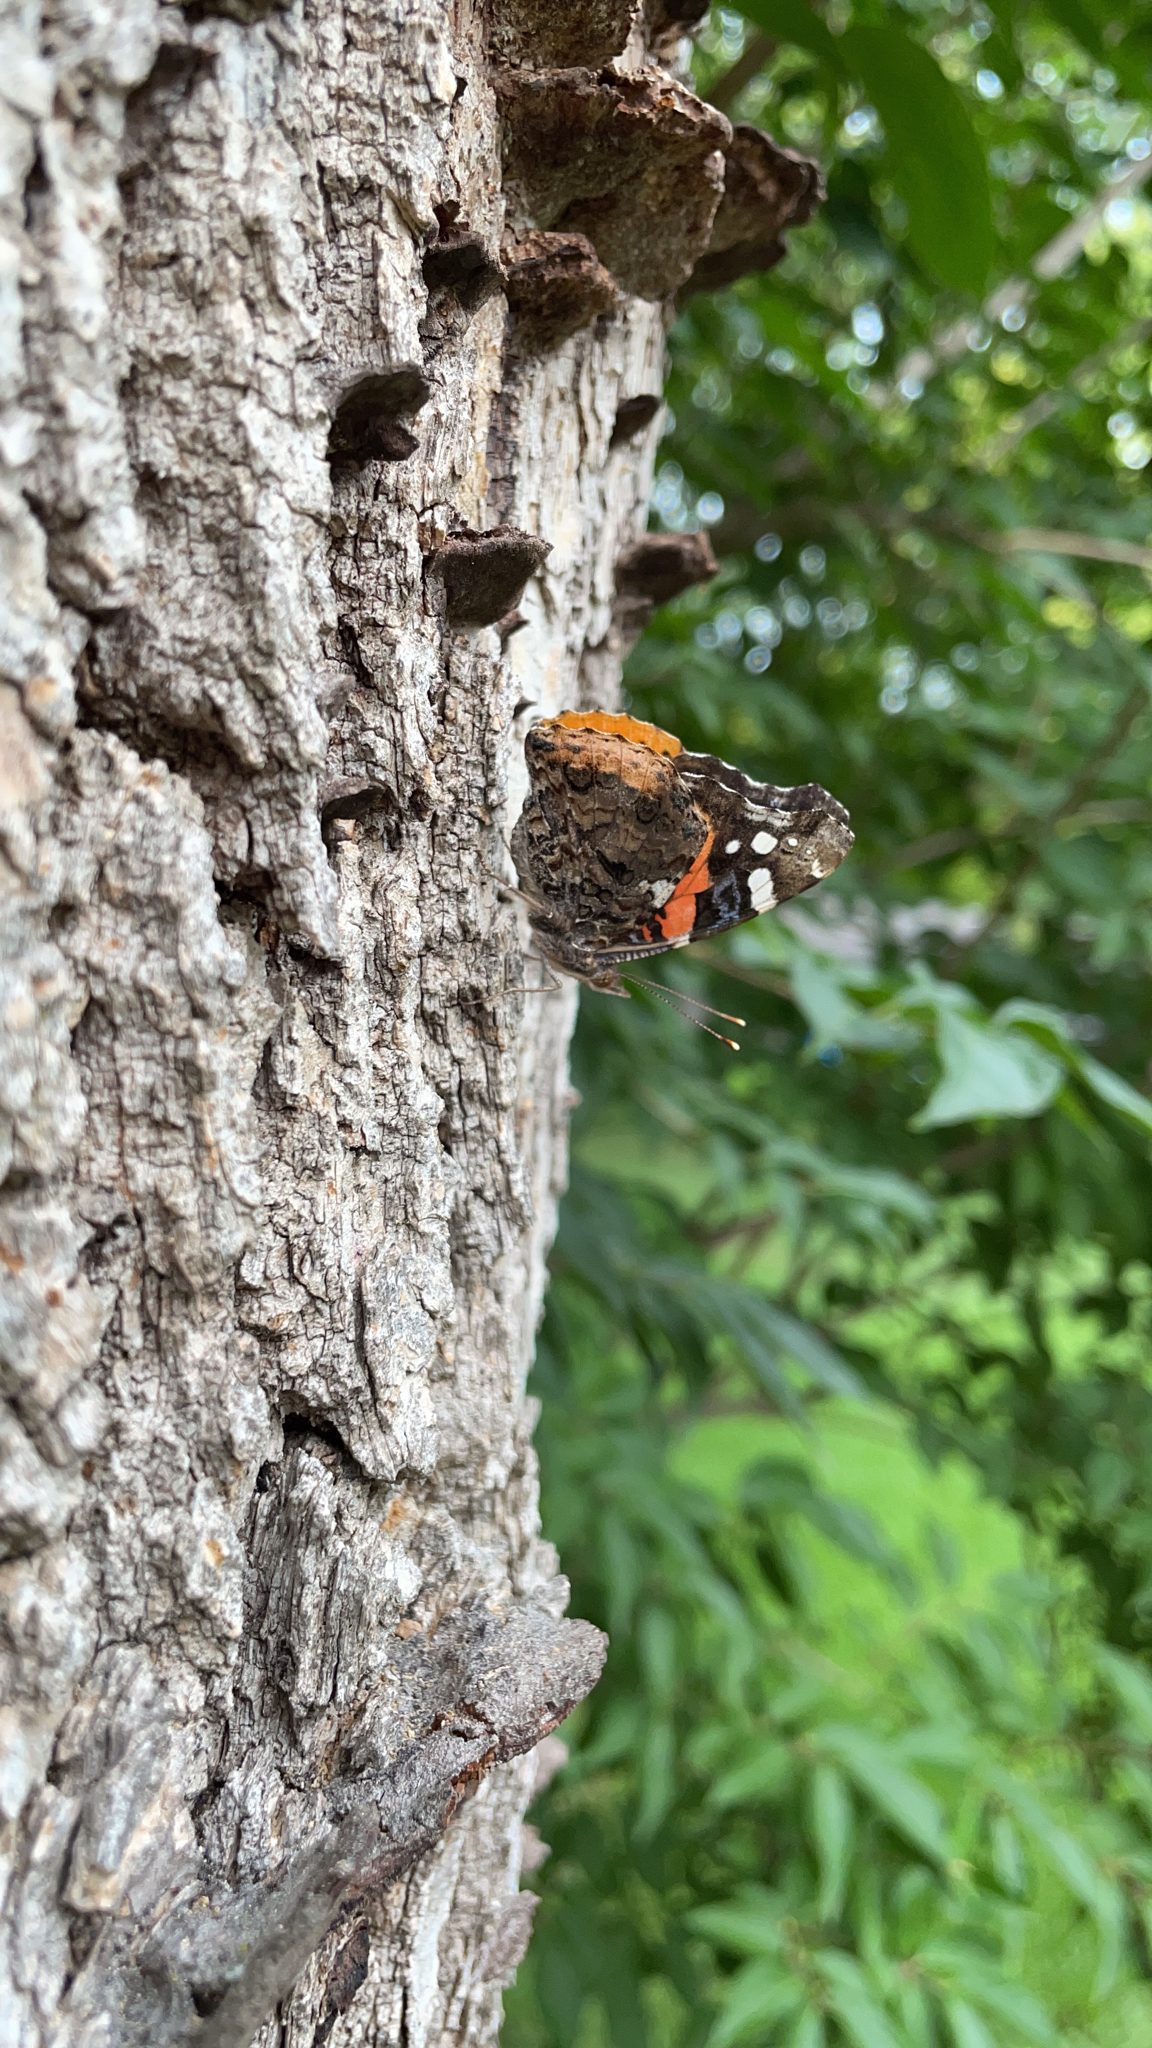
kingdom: Animalia
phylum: Arthropoda
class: Insecta
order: Lepidoptera
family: Nymphalidae
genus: Vanessa
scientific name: Vanessa atalanta
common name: Red admiral
